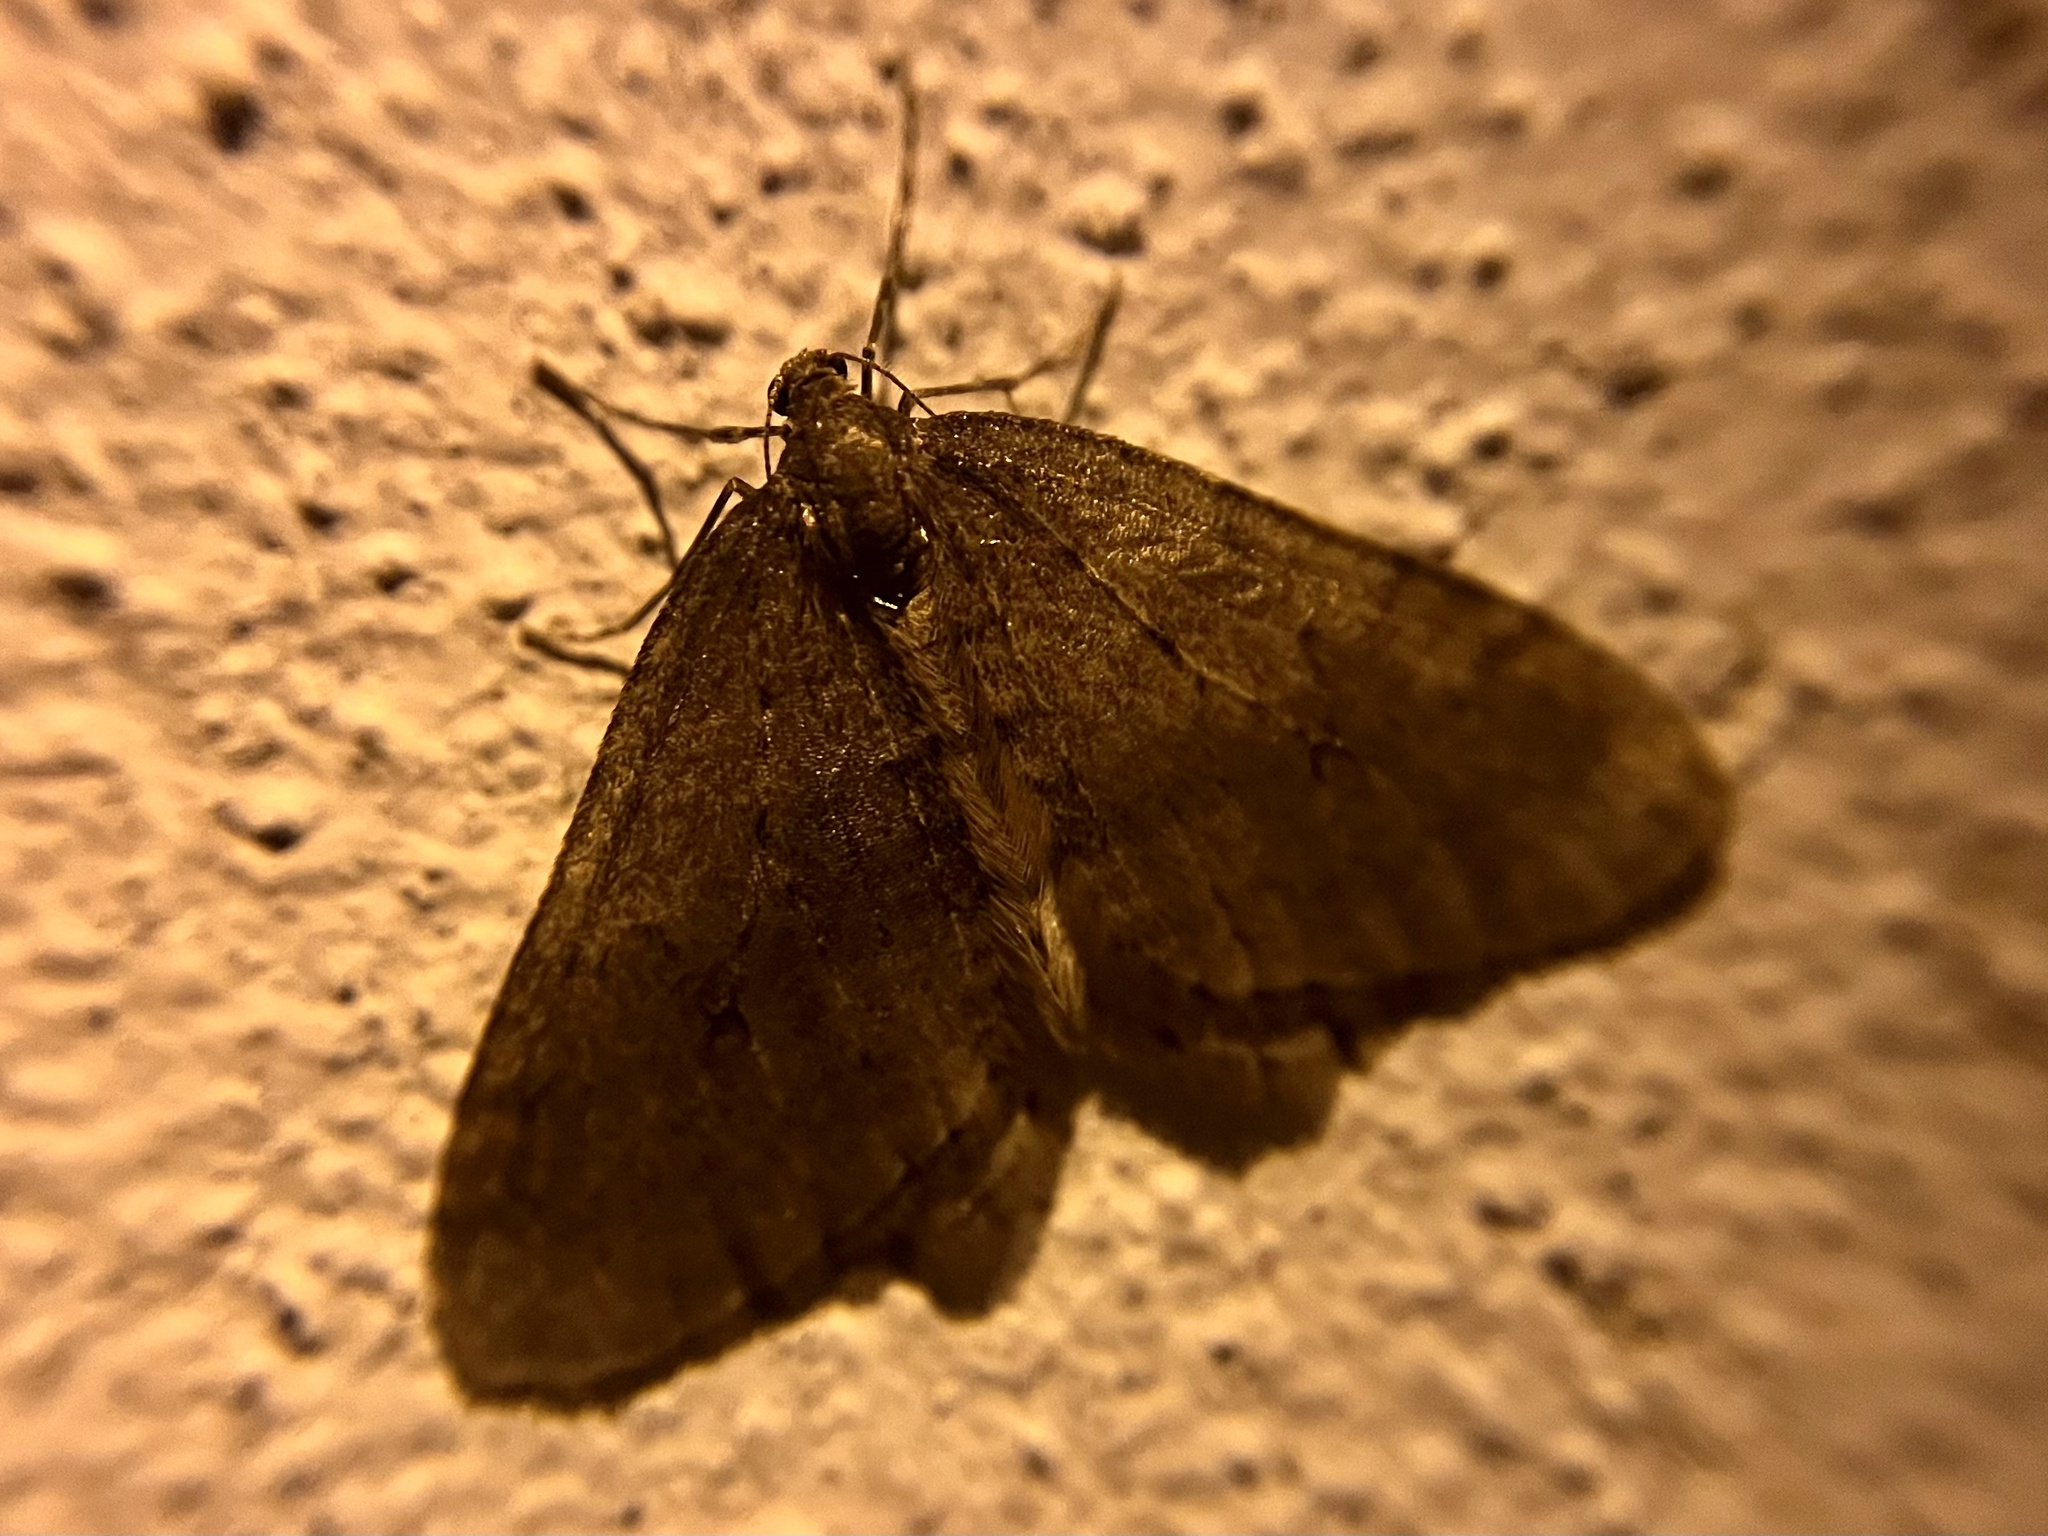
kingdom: Animalia
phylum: Arthropoda
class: Insecta
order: Lepidoptera
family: Geometridae
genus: Operophtera
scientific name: Operophtera brumata
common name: Winter moth
